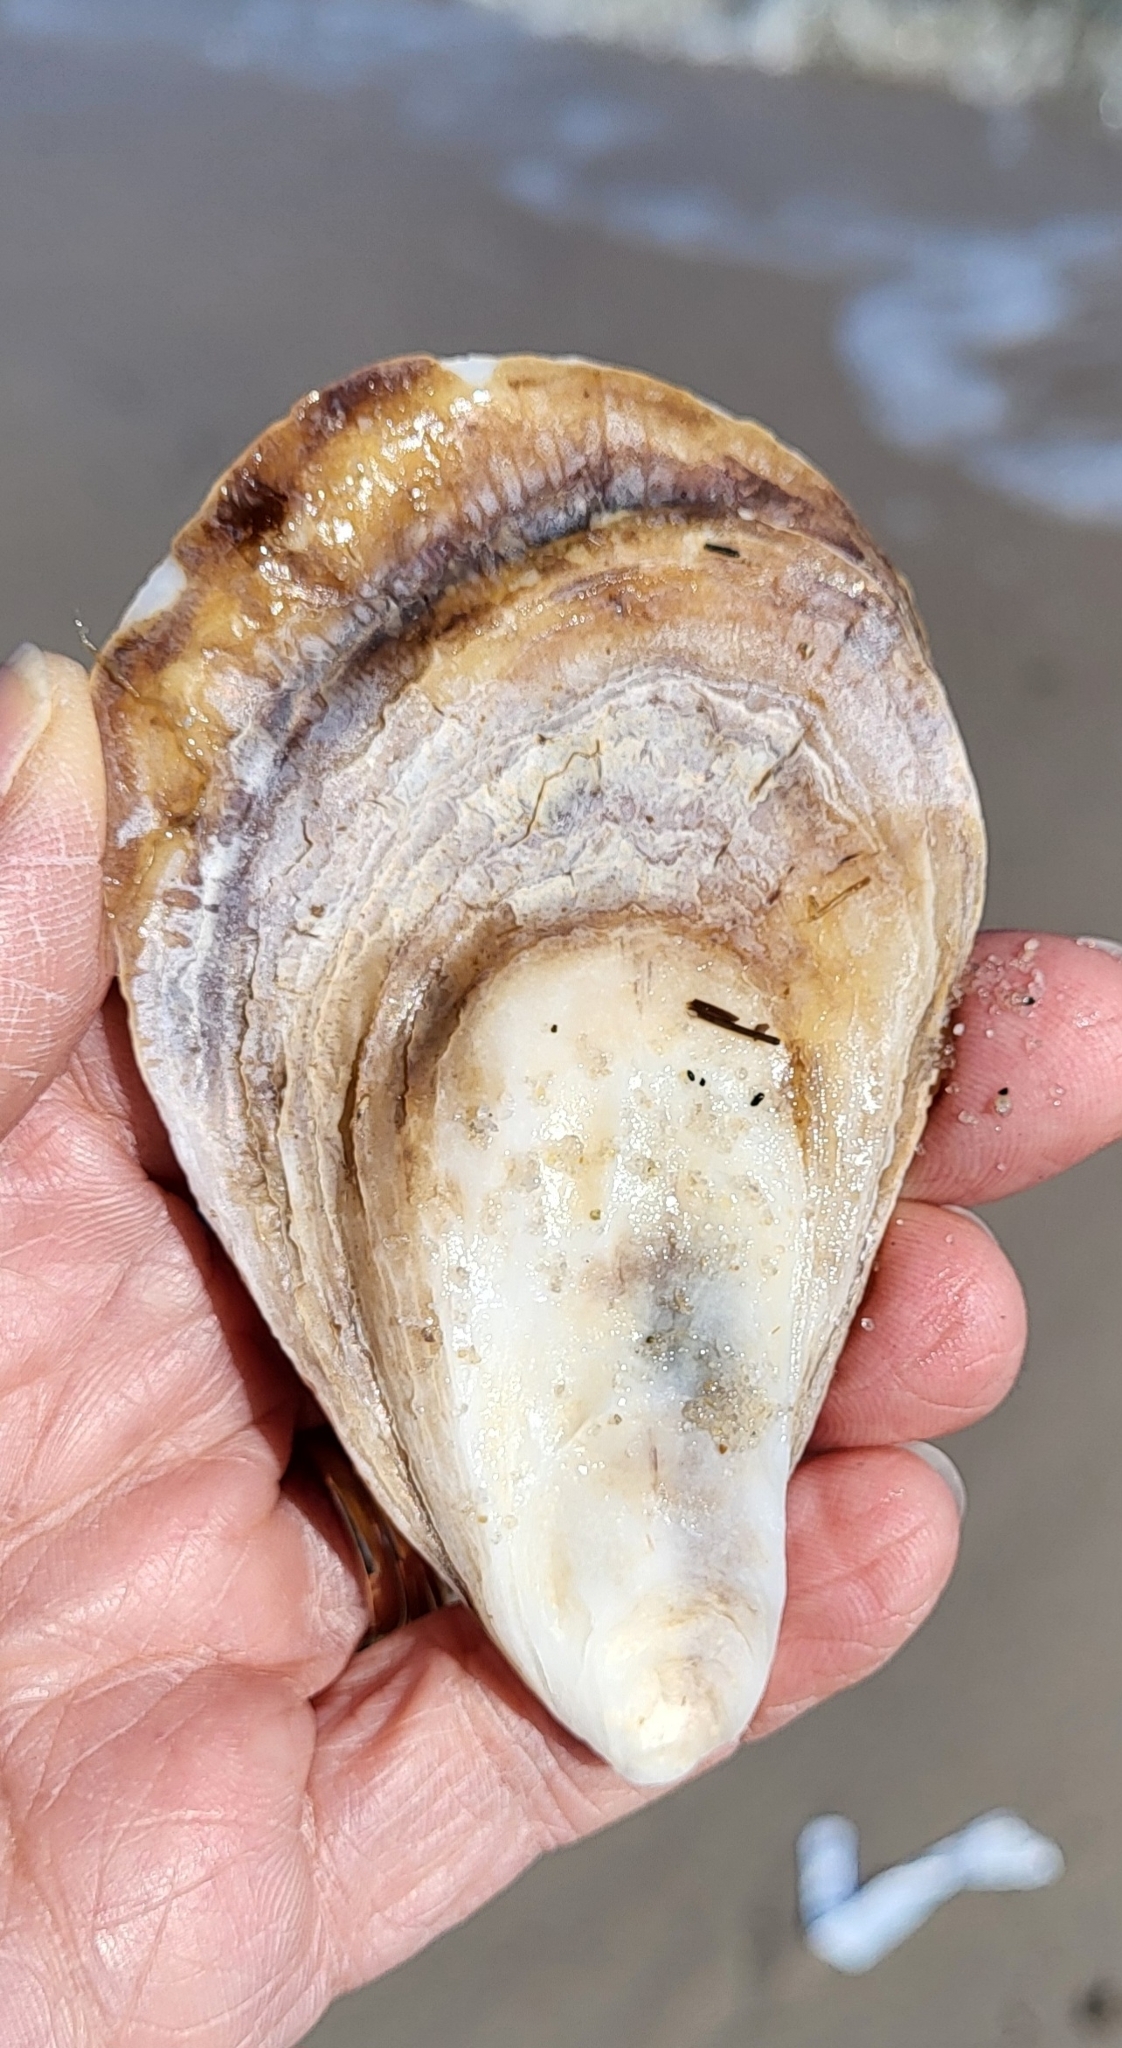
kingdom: Animalia
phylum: Mollusca
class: Bivalvia
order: Ostreida
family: Ostreidae
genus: Crassostrea
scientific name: Crassostrea virginica
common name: American oyster
